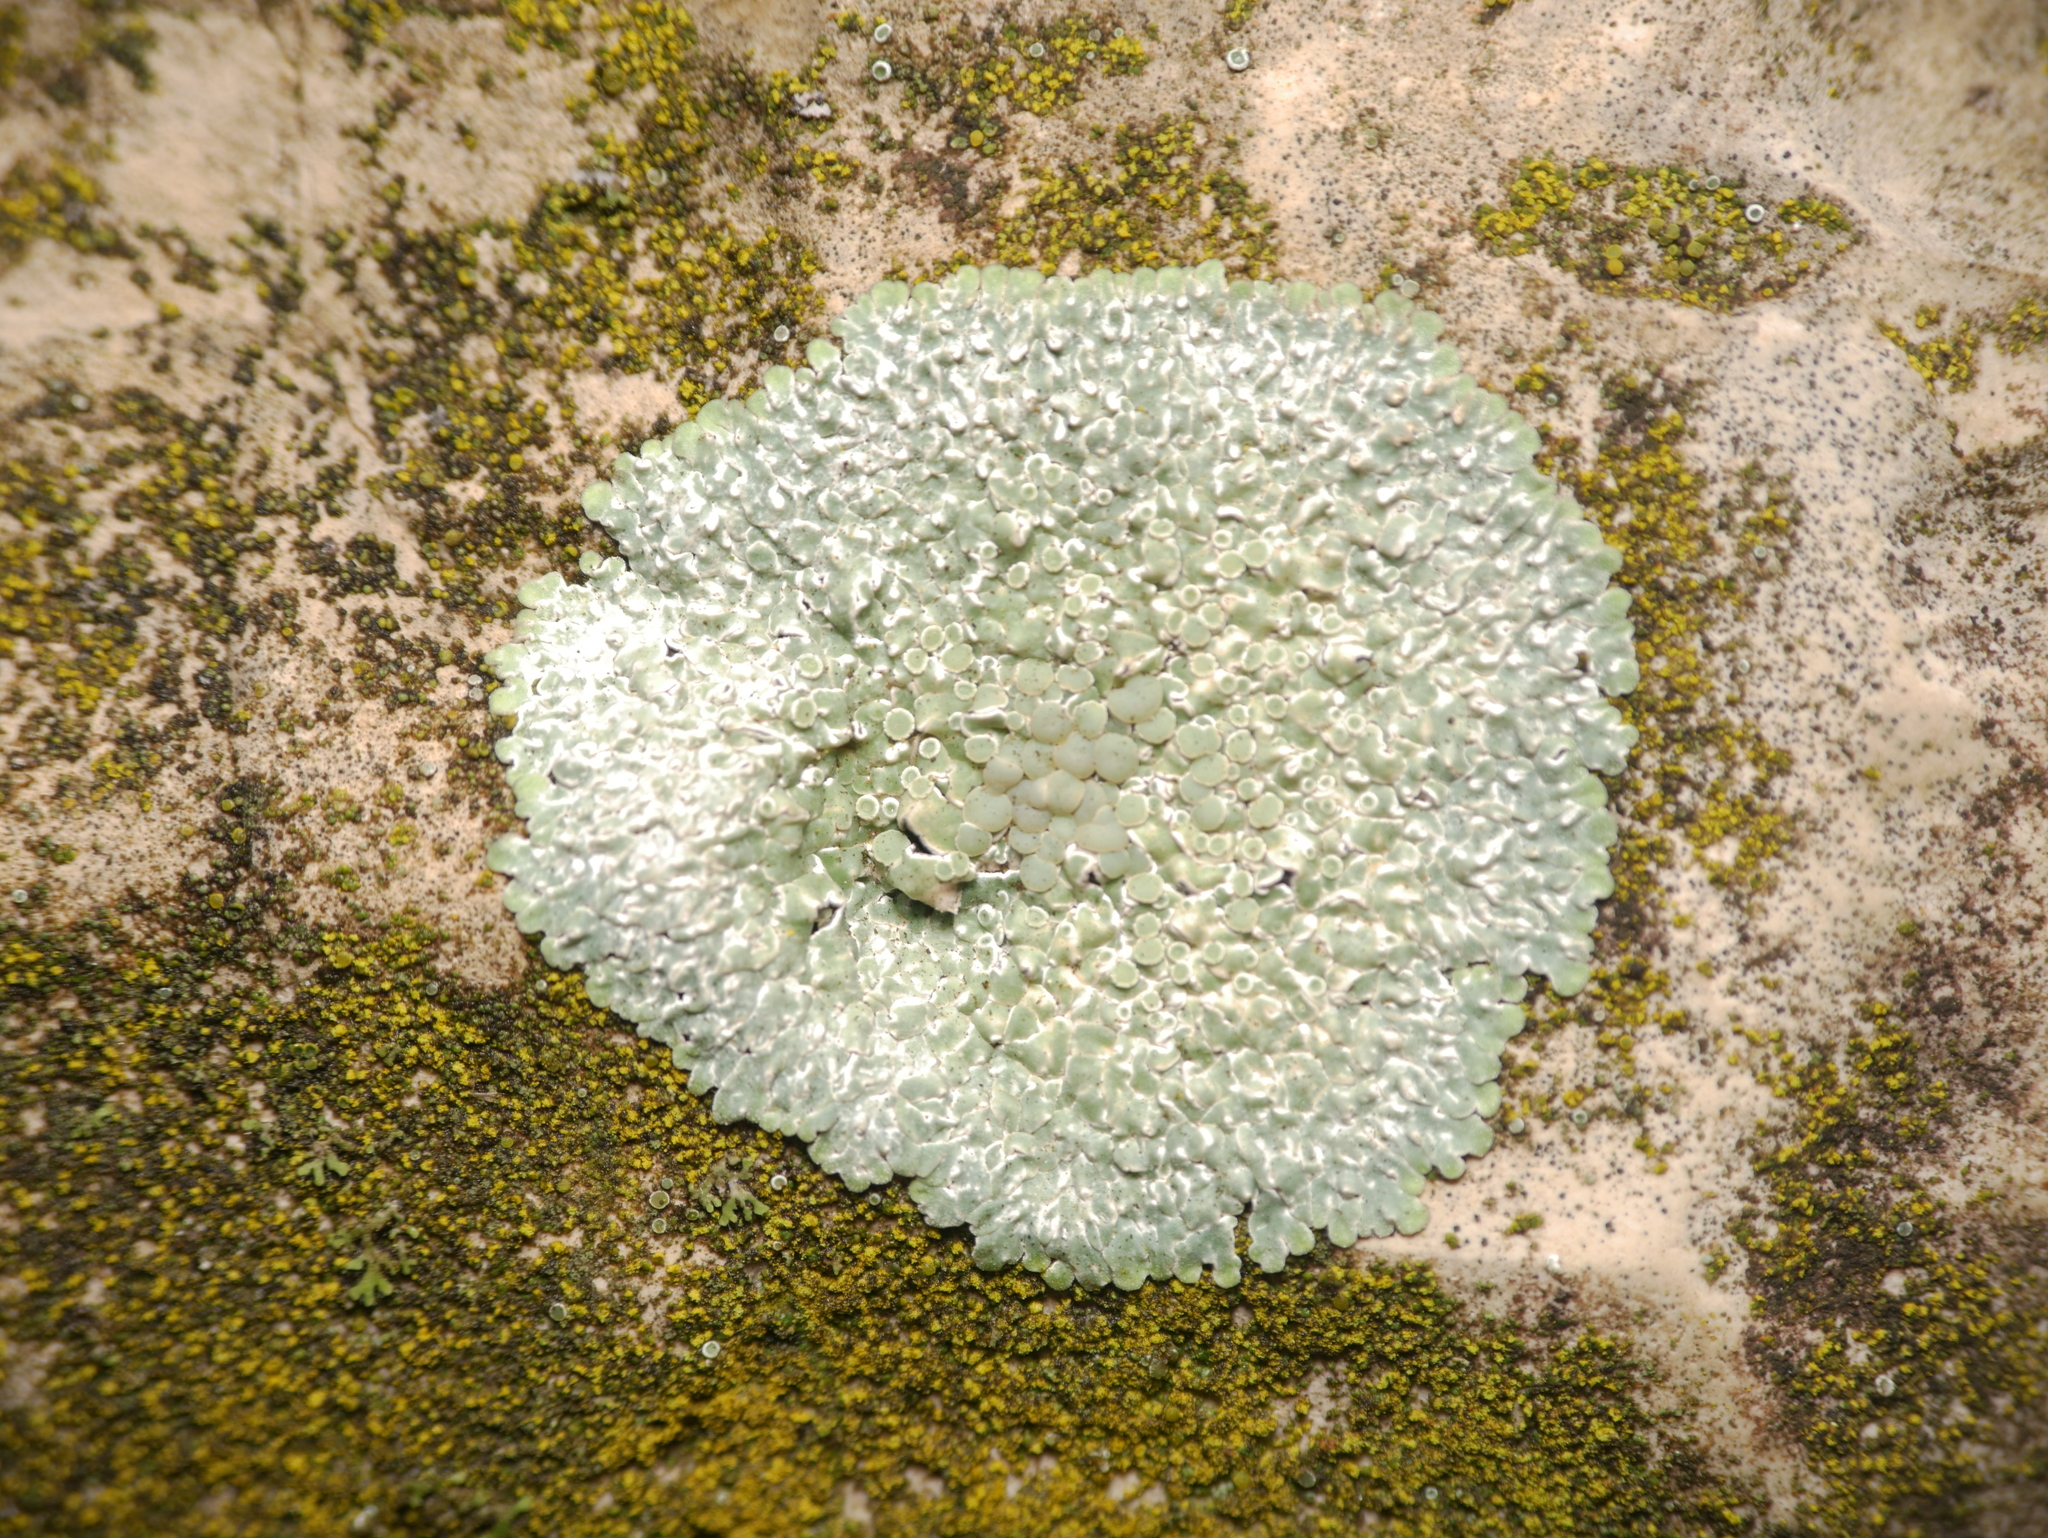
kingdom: Fungi
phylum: Ascomycota
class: Lecanoromycetes
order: Lecanorales
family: Lecanoraceae
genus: Protoparmeliopsis
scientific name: Protoparmeliopsis muralis
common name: Stonewall rim lichen
